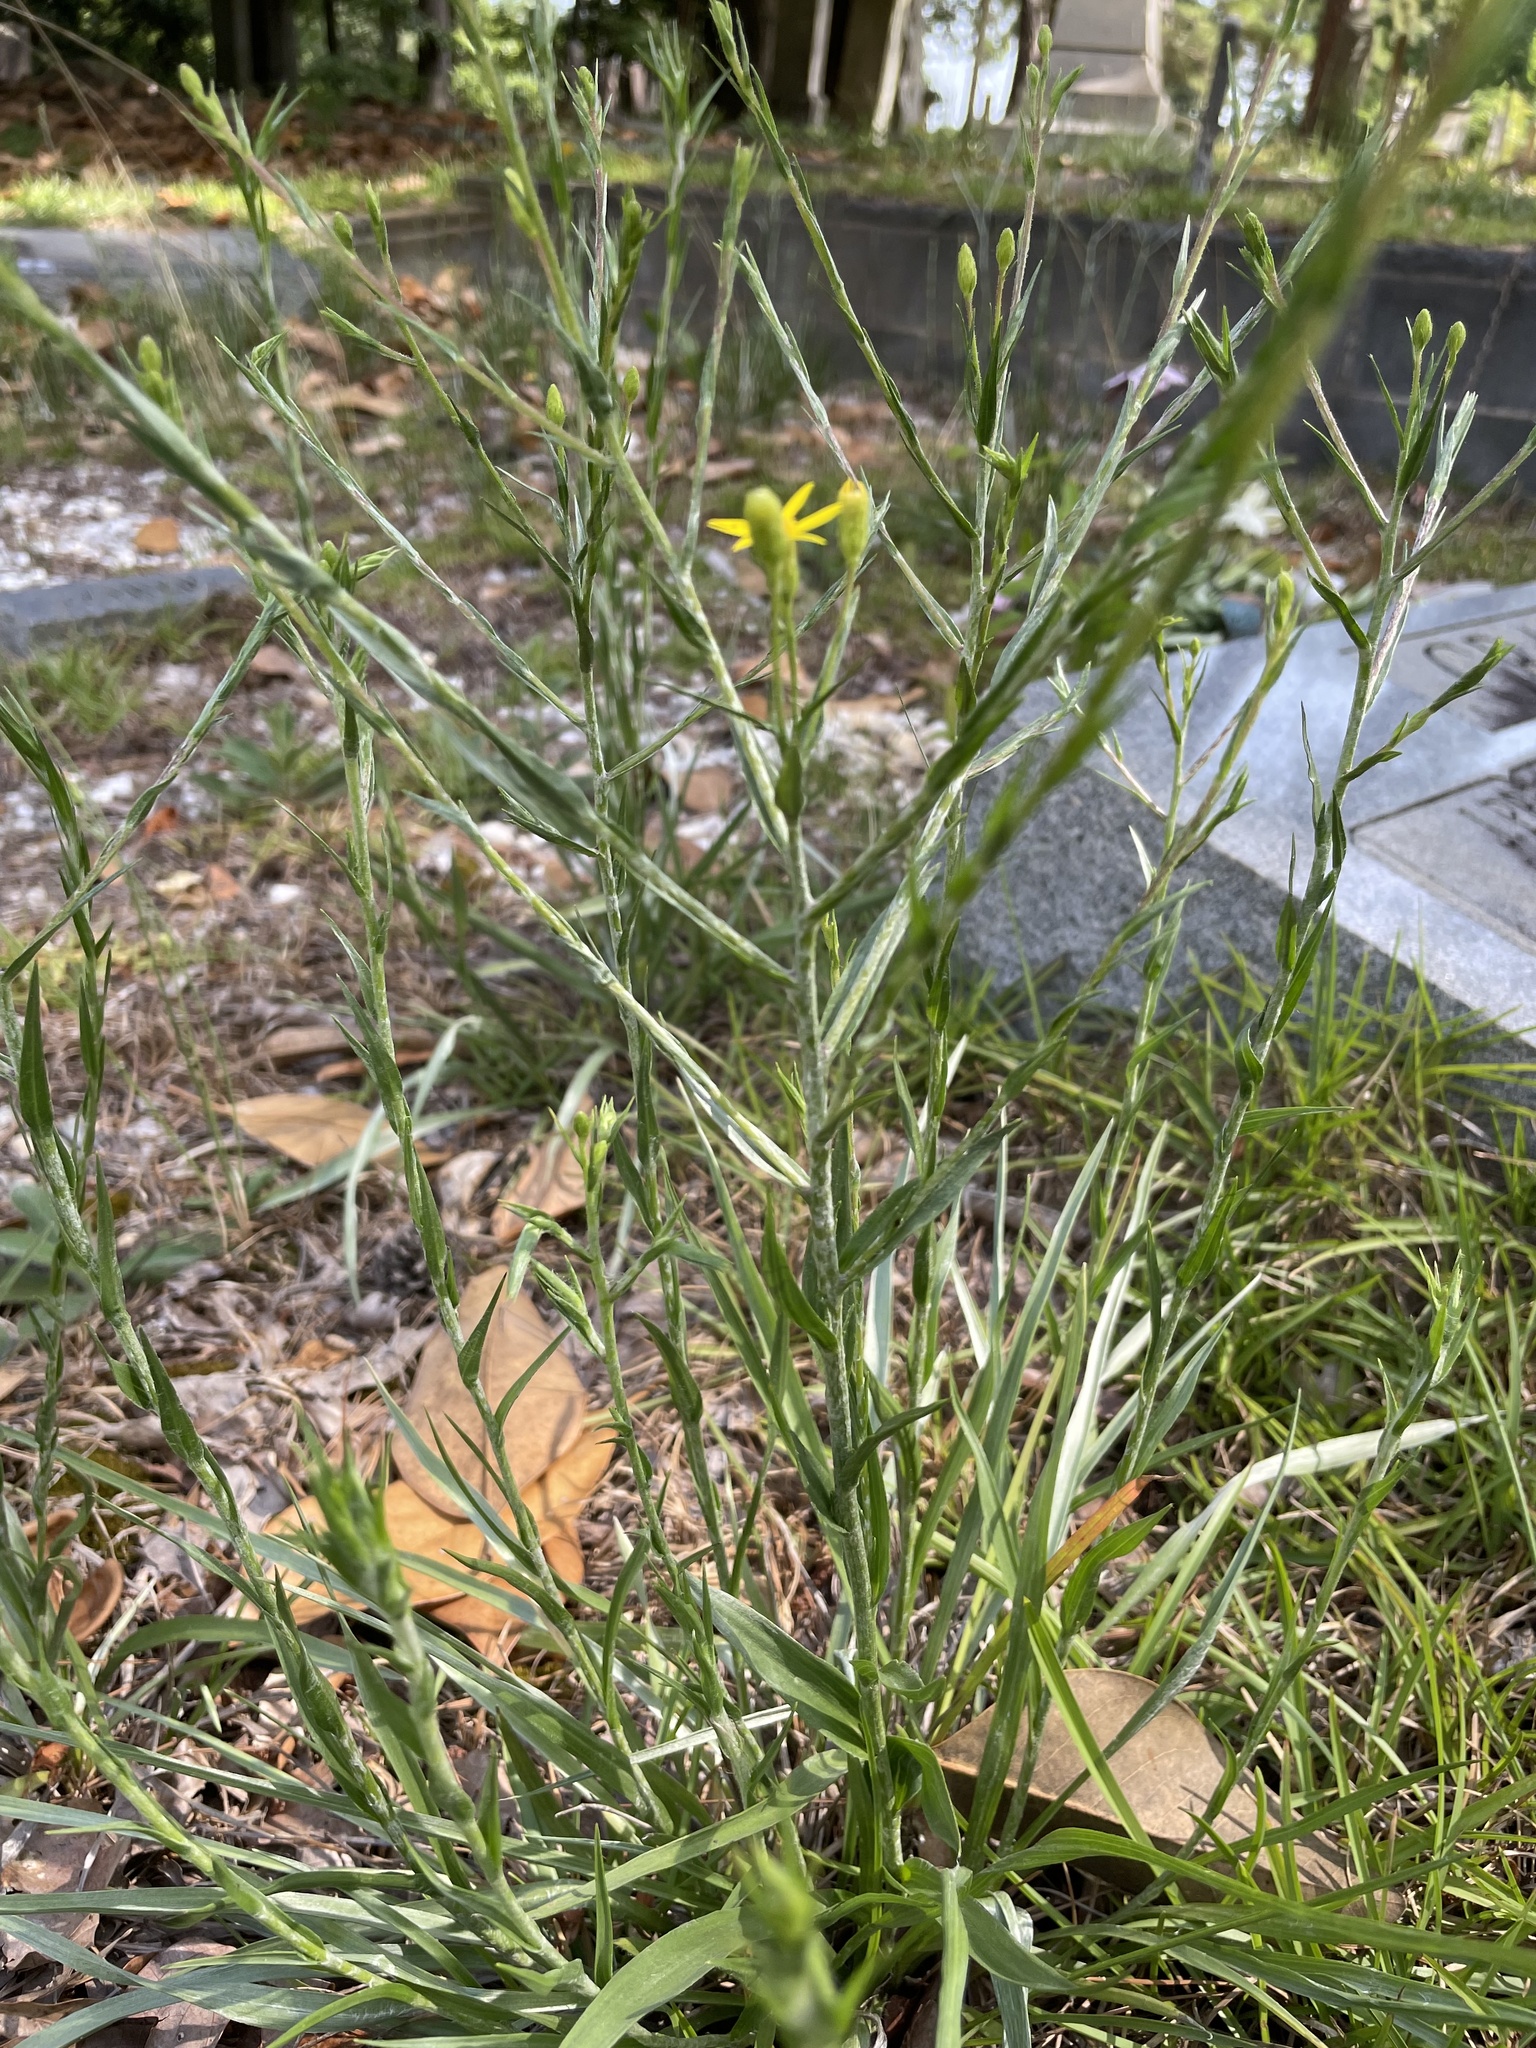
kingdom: Plantae
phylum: Tracheophyta
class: Magnoliopsida
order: Asterales
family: Asteraceae
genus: Pityopsis
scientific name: Pityopsis aspera
